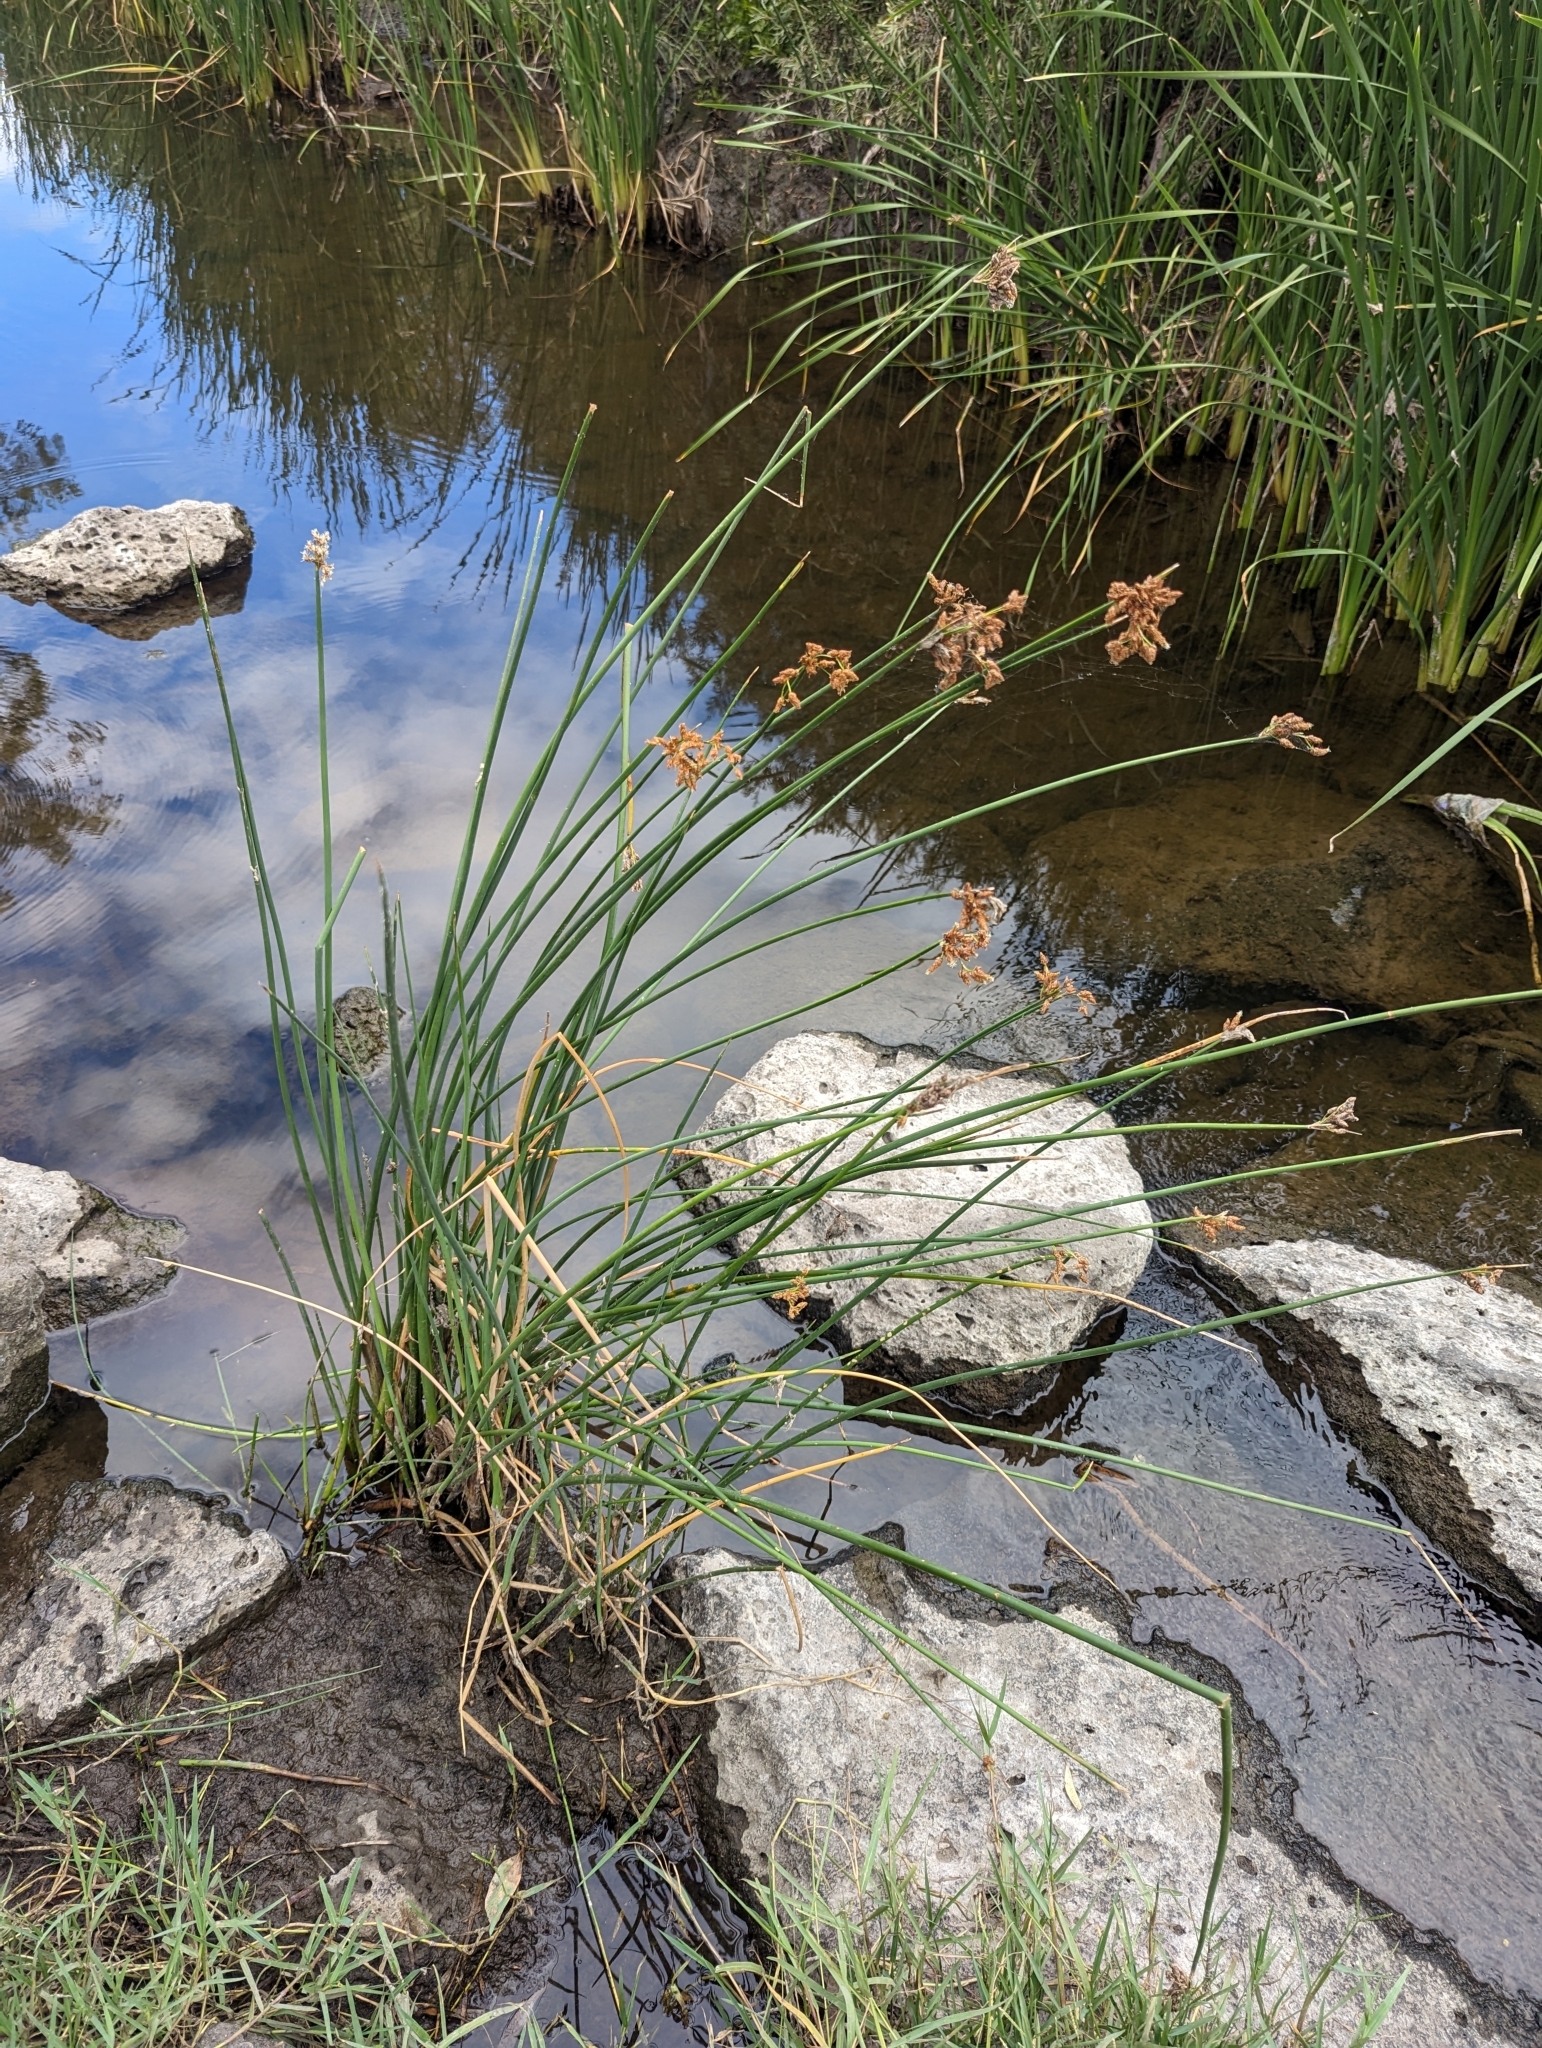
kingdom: Plantae
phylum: Tracheophyta
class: Liliopsida
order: Poales
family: Cyperaceae
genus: Schoenoplectus
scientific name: Schoenoplectus tabernaemontani
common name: Grey club-rush
